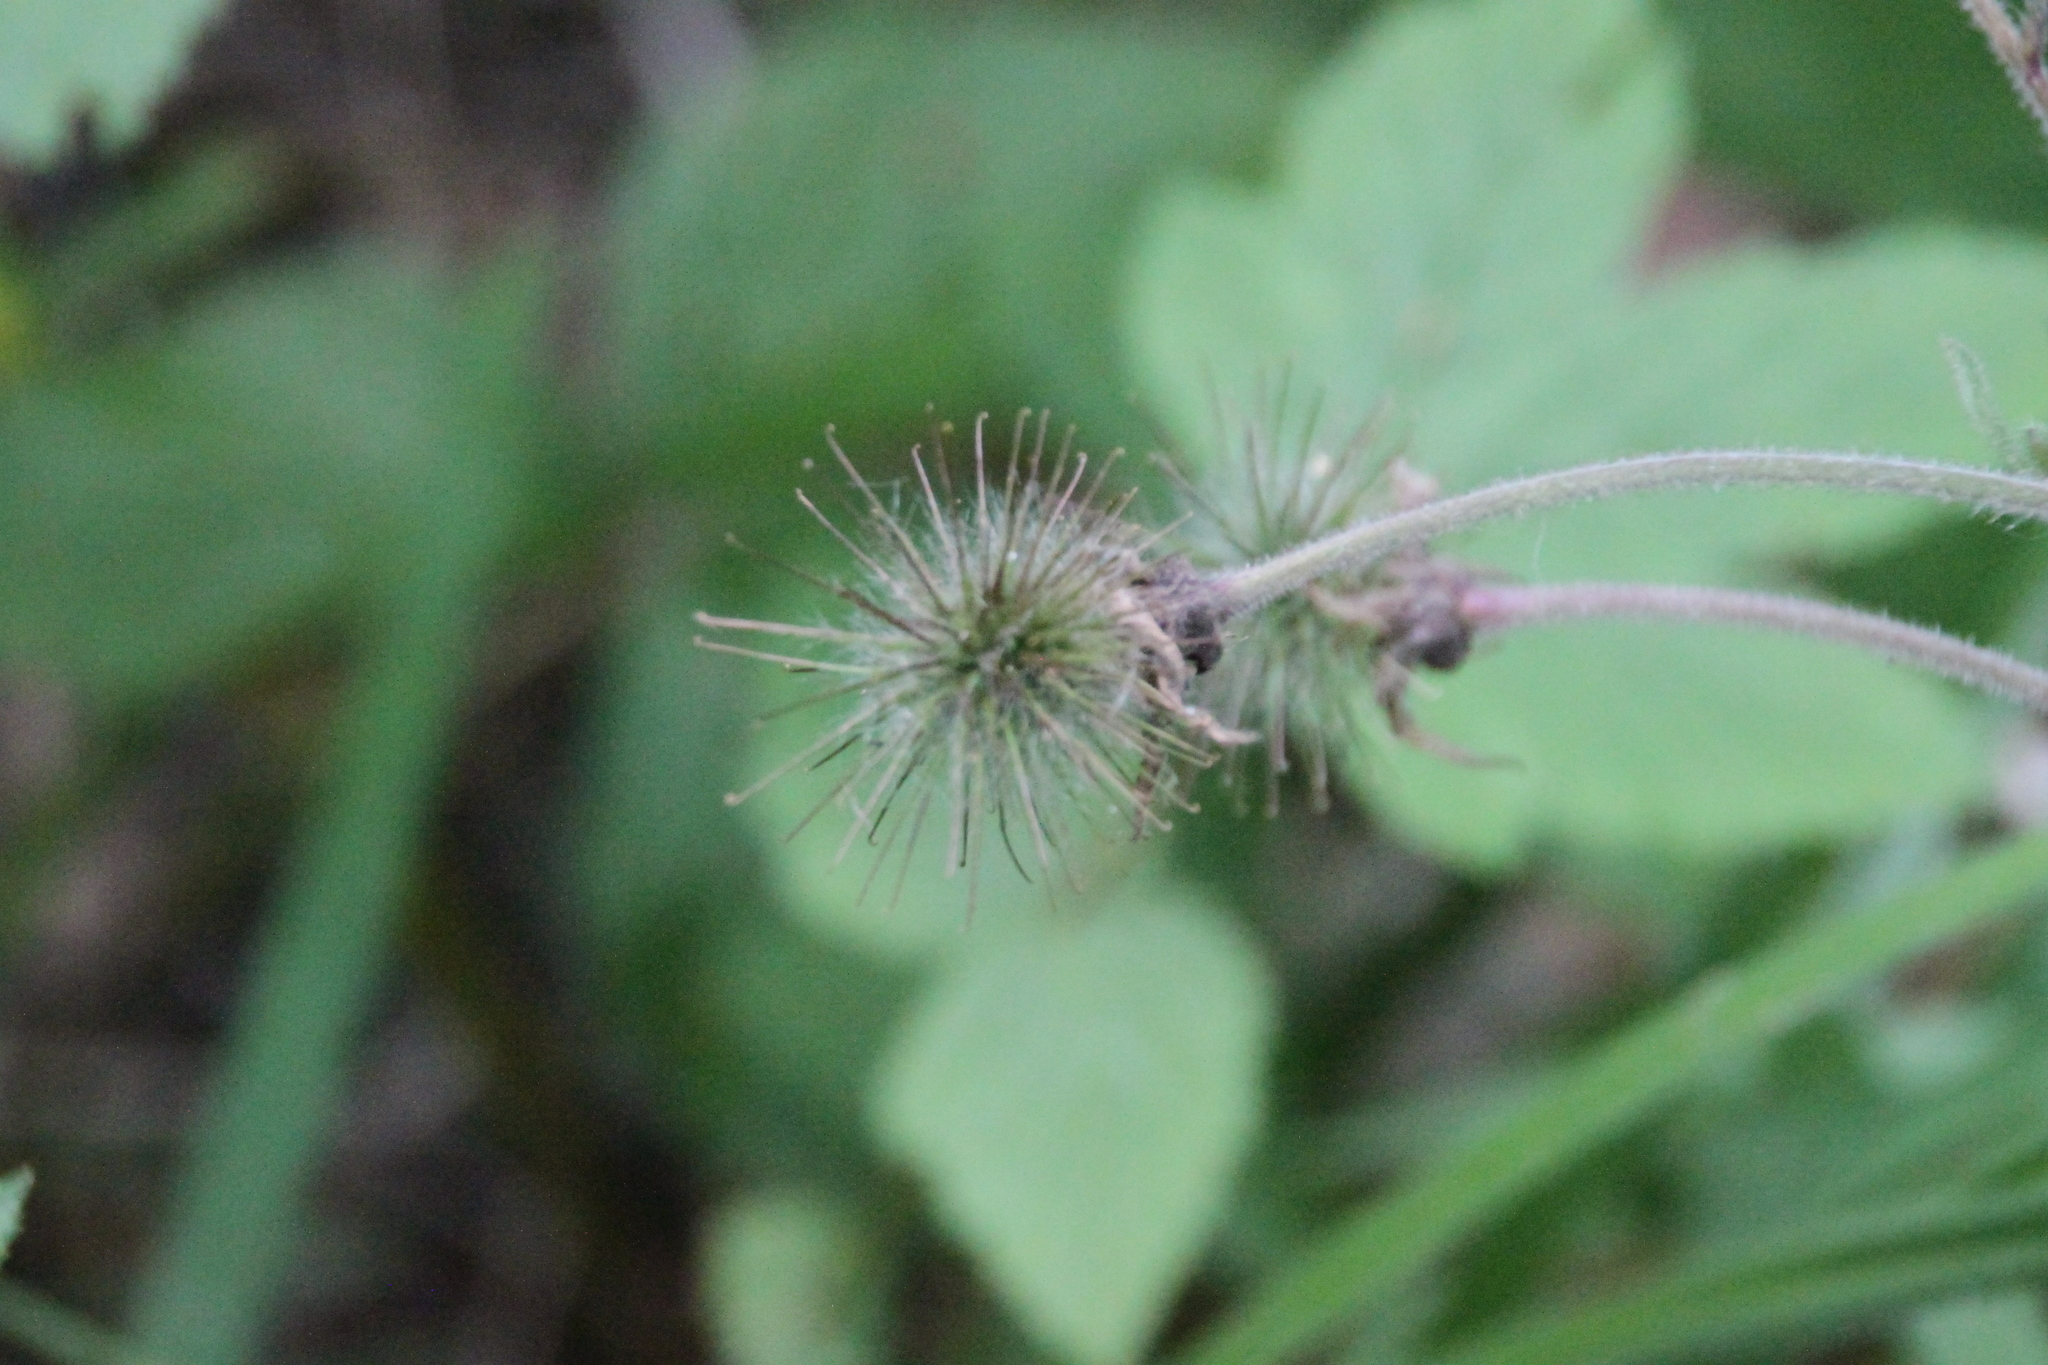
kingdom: Plantae
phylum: Tracheophyta
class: Magnoliopsida
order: Rosales
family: Rosaceae
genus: Geum
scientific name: Geum rivale
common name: Water avens
